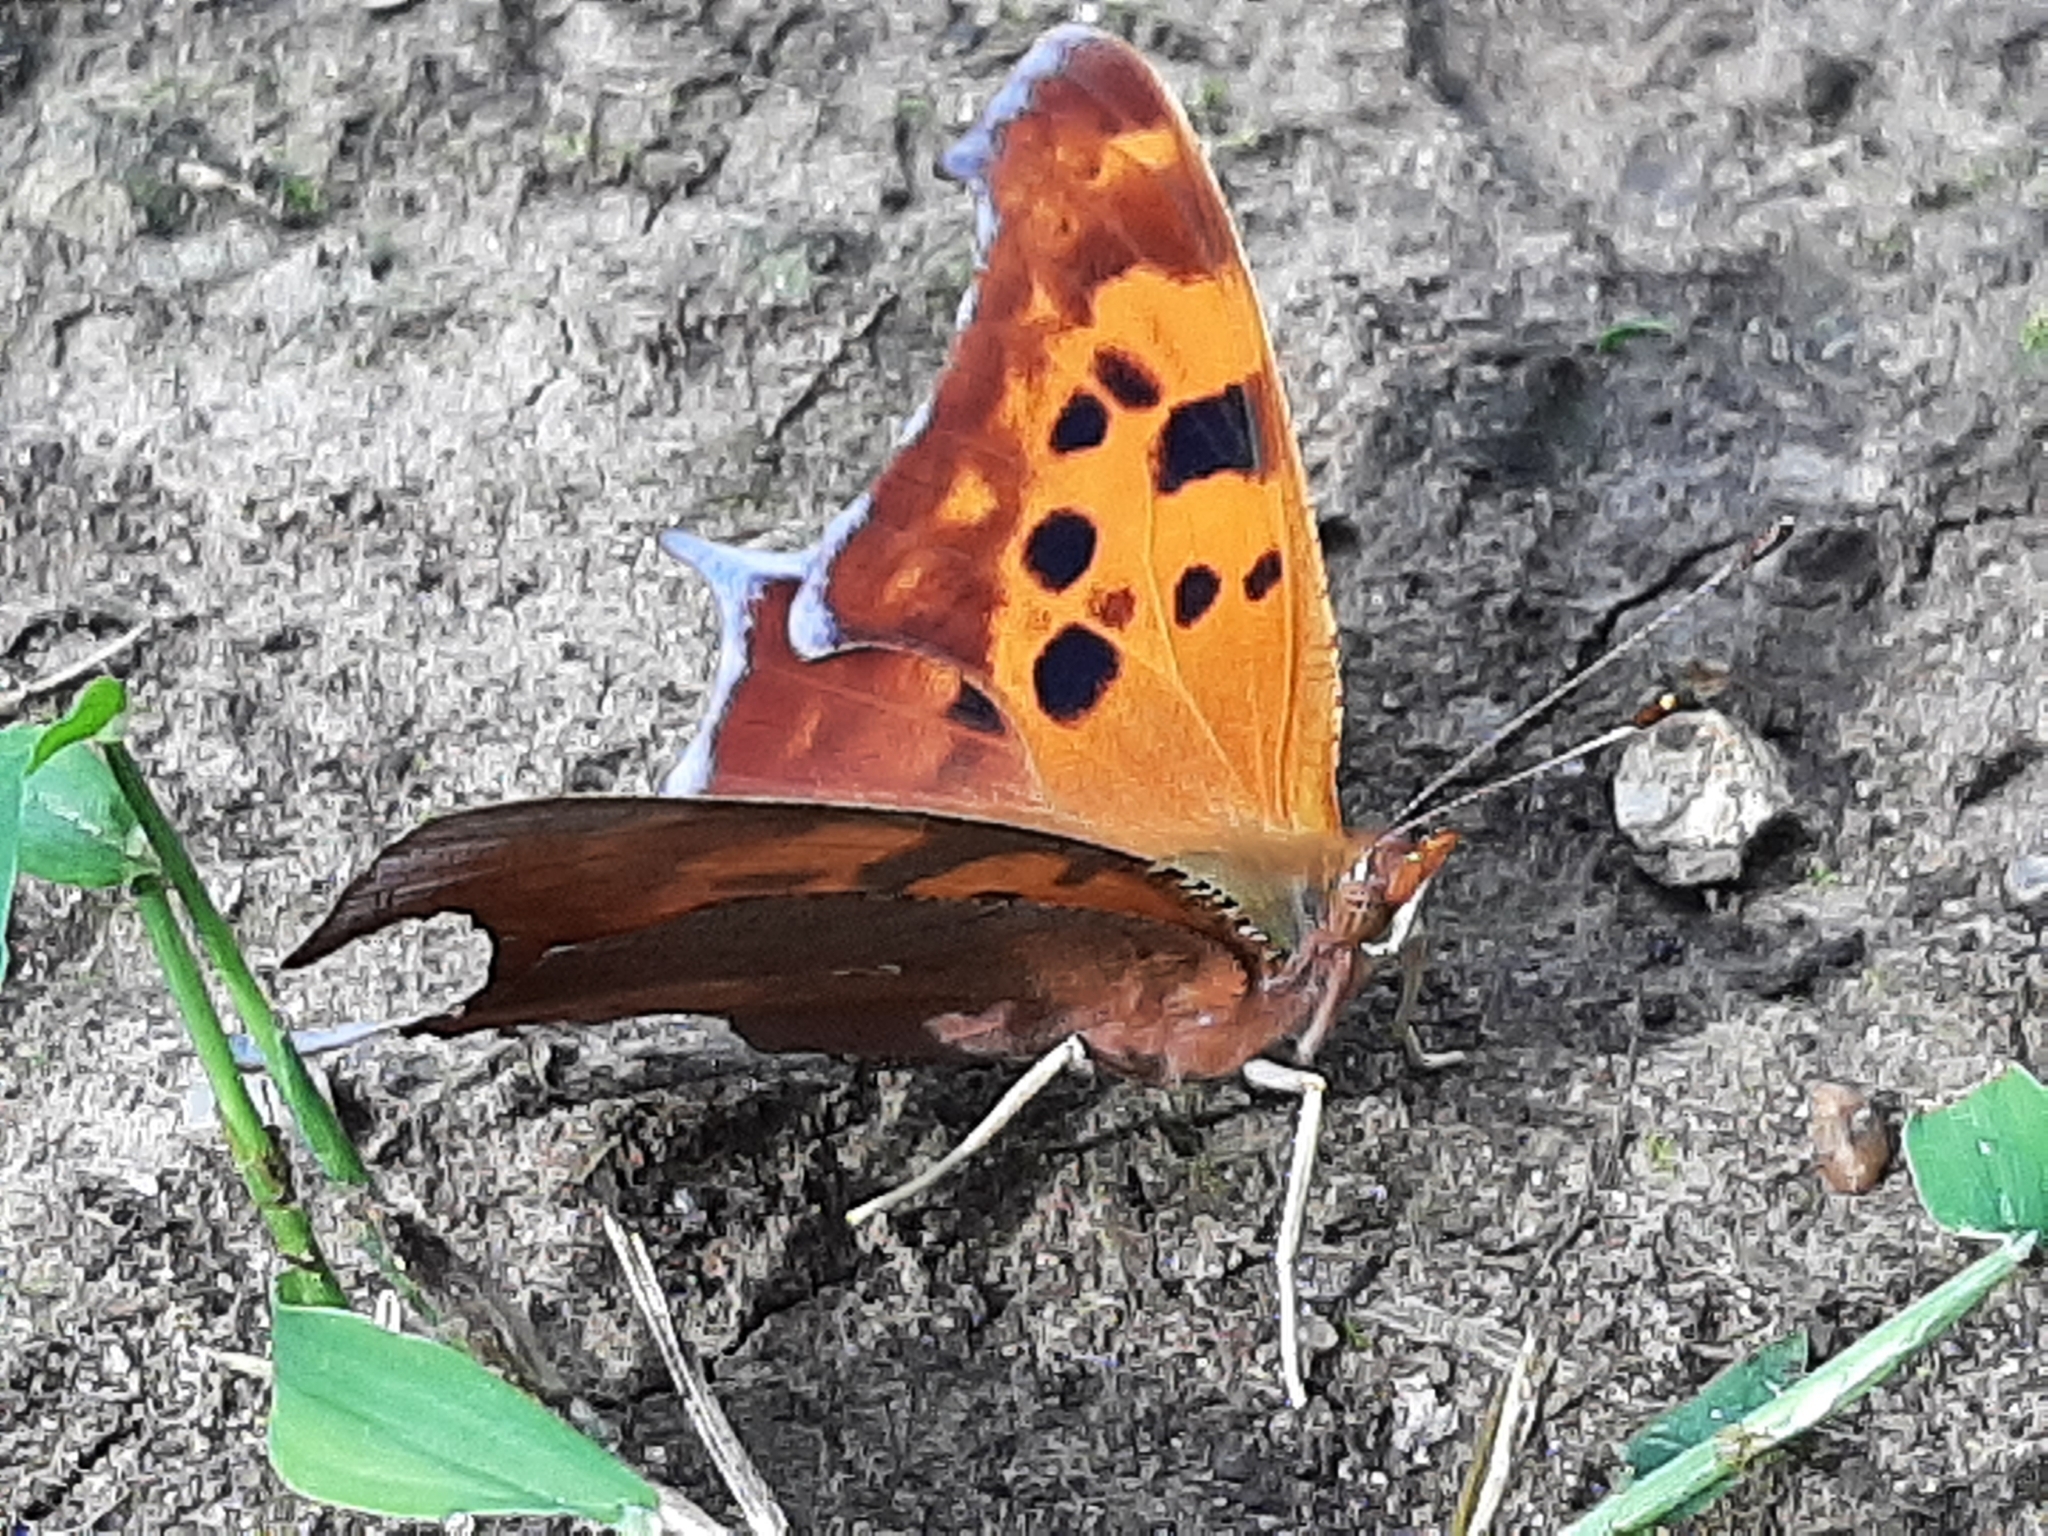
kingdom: Animalia
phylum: Arthropoda
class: Insecta
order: Lepidoptera
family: Nymphalidae
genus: Polygonia
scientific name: Polygonia interrogationis
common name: Question mark
